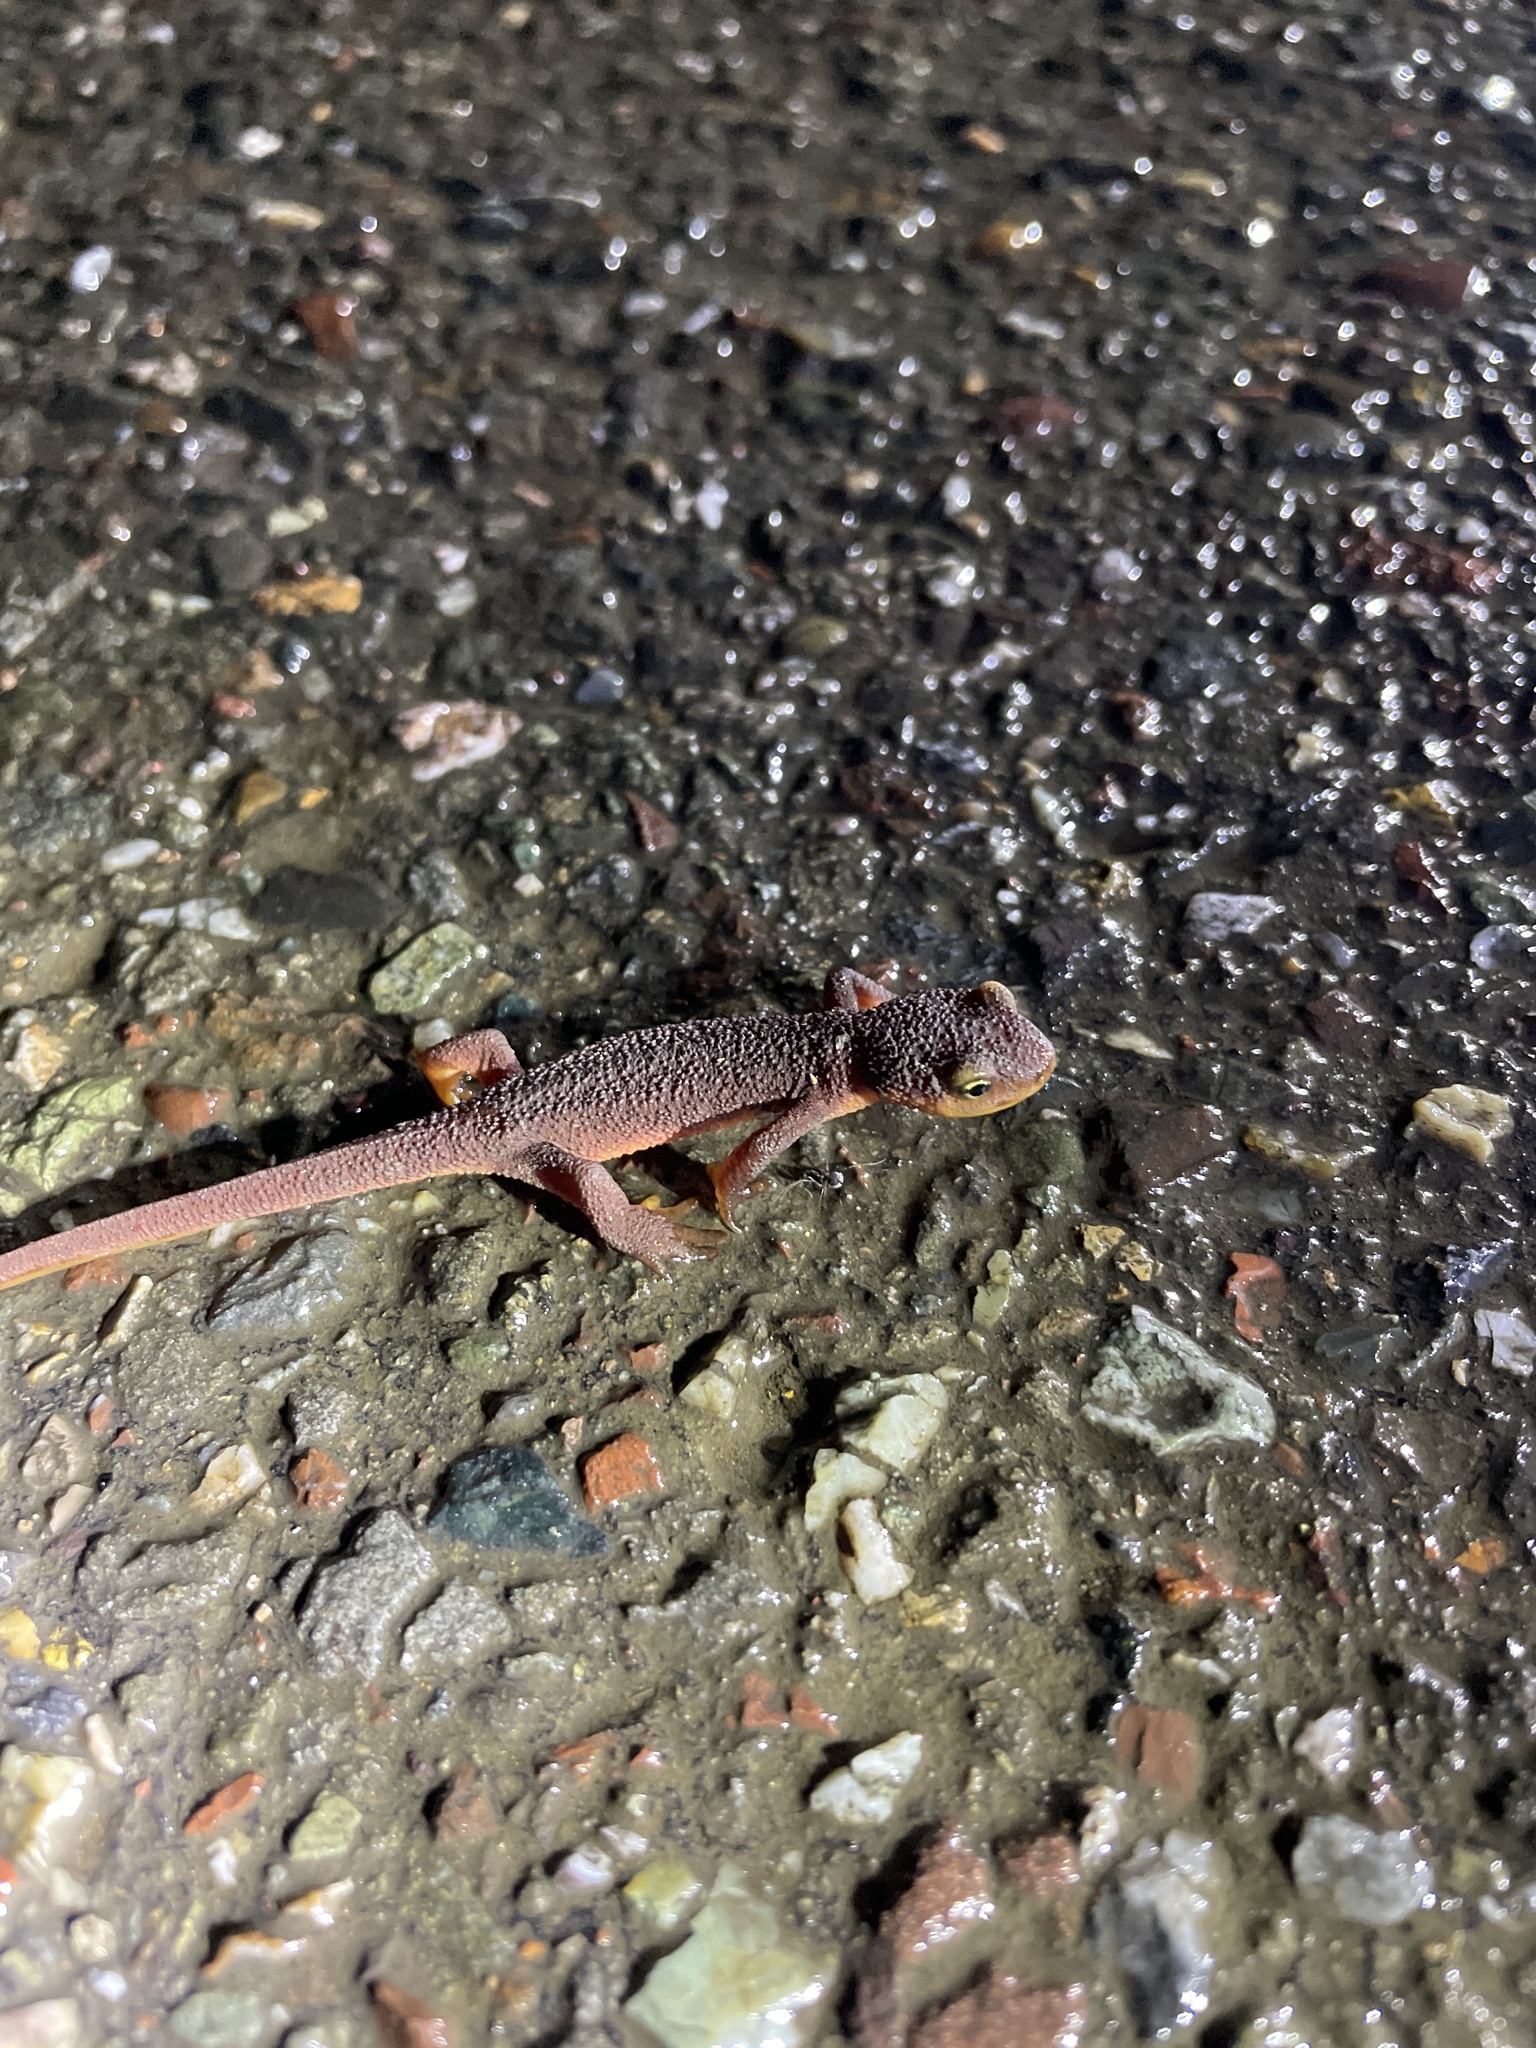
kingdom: Animalia
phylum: Chordata
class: Amphibia
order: Caudata
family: Salamandridae
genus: Taricha
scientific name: Taricha torosa
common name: California newt
